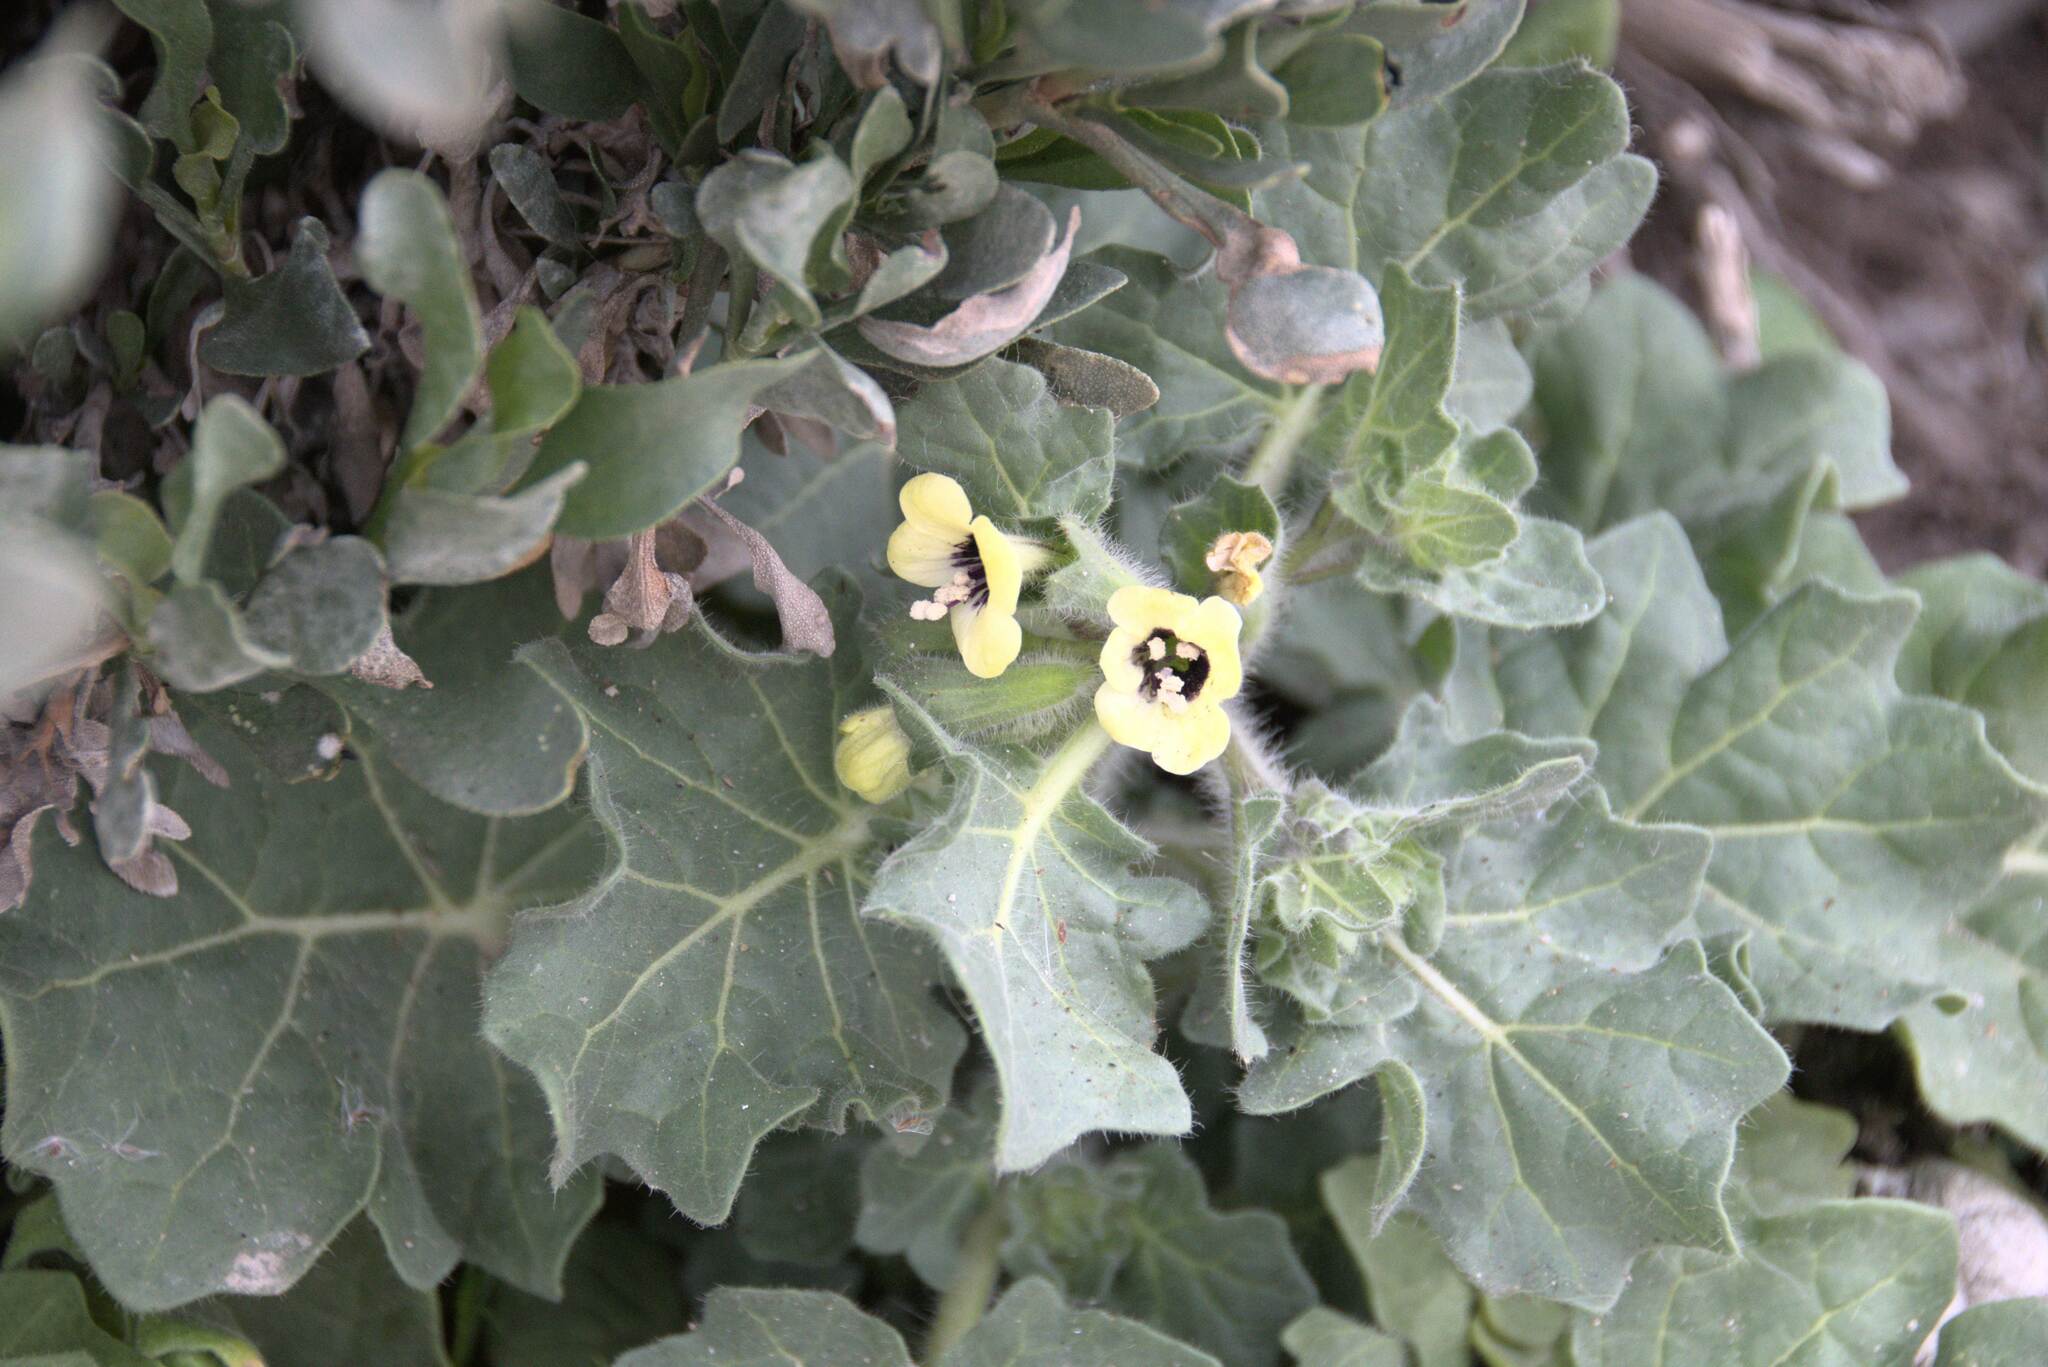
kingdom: Plantae
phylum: Tracheophyta
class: Magnoliopsida
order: Solanales
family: Solanaceae
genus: Hyoscyamus
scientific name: Hyoscyamus albus
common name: White henbane
